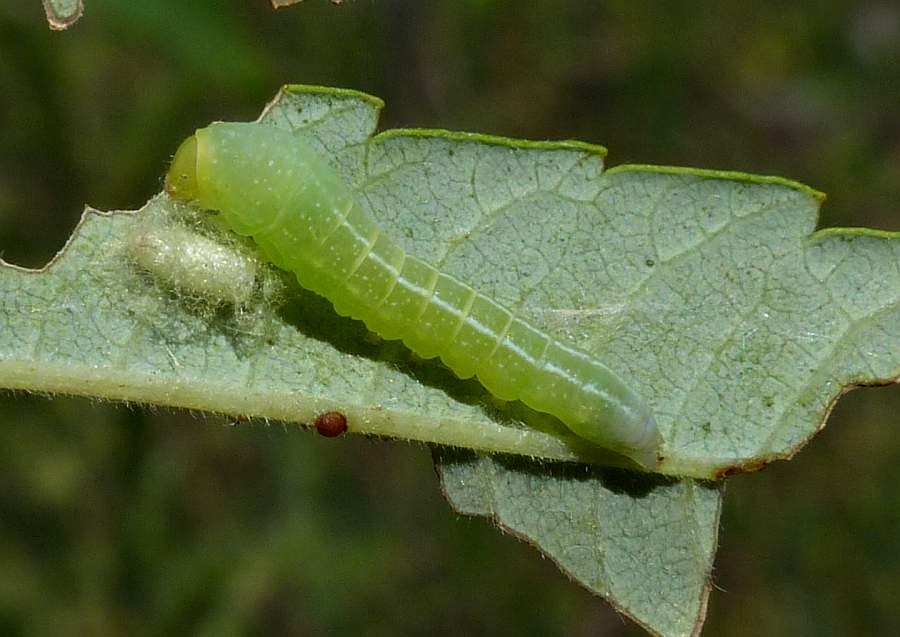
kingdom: Animalia
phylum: Arthropoda
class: Insecta
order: Lepidoptera
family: Euteliidae
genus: Marathyssa
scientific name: Marathyssa inficita
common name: Dark marathyssa moth
